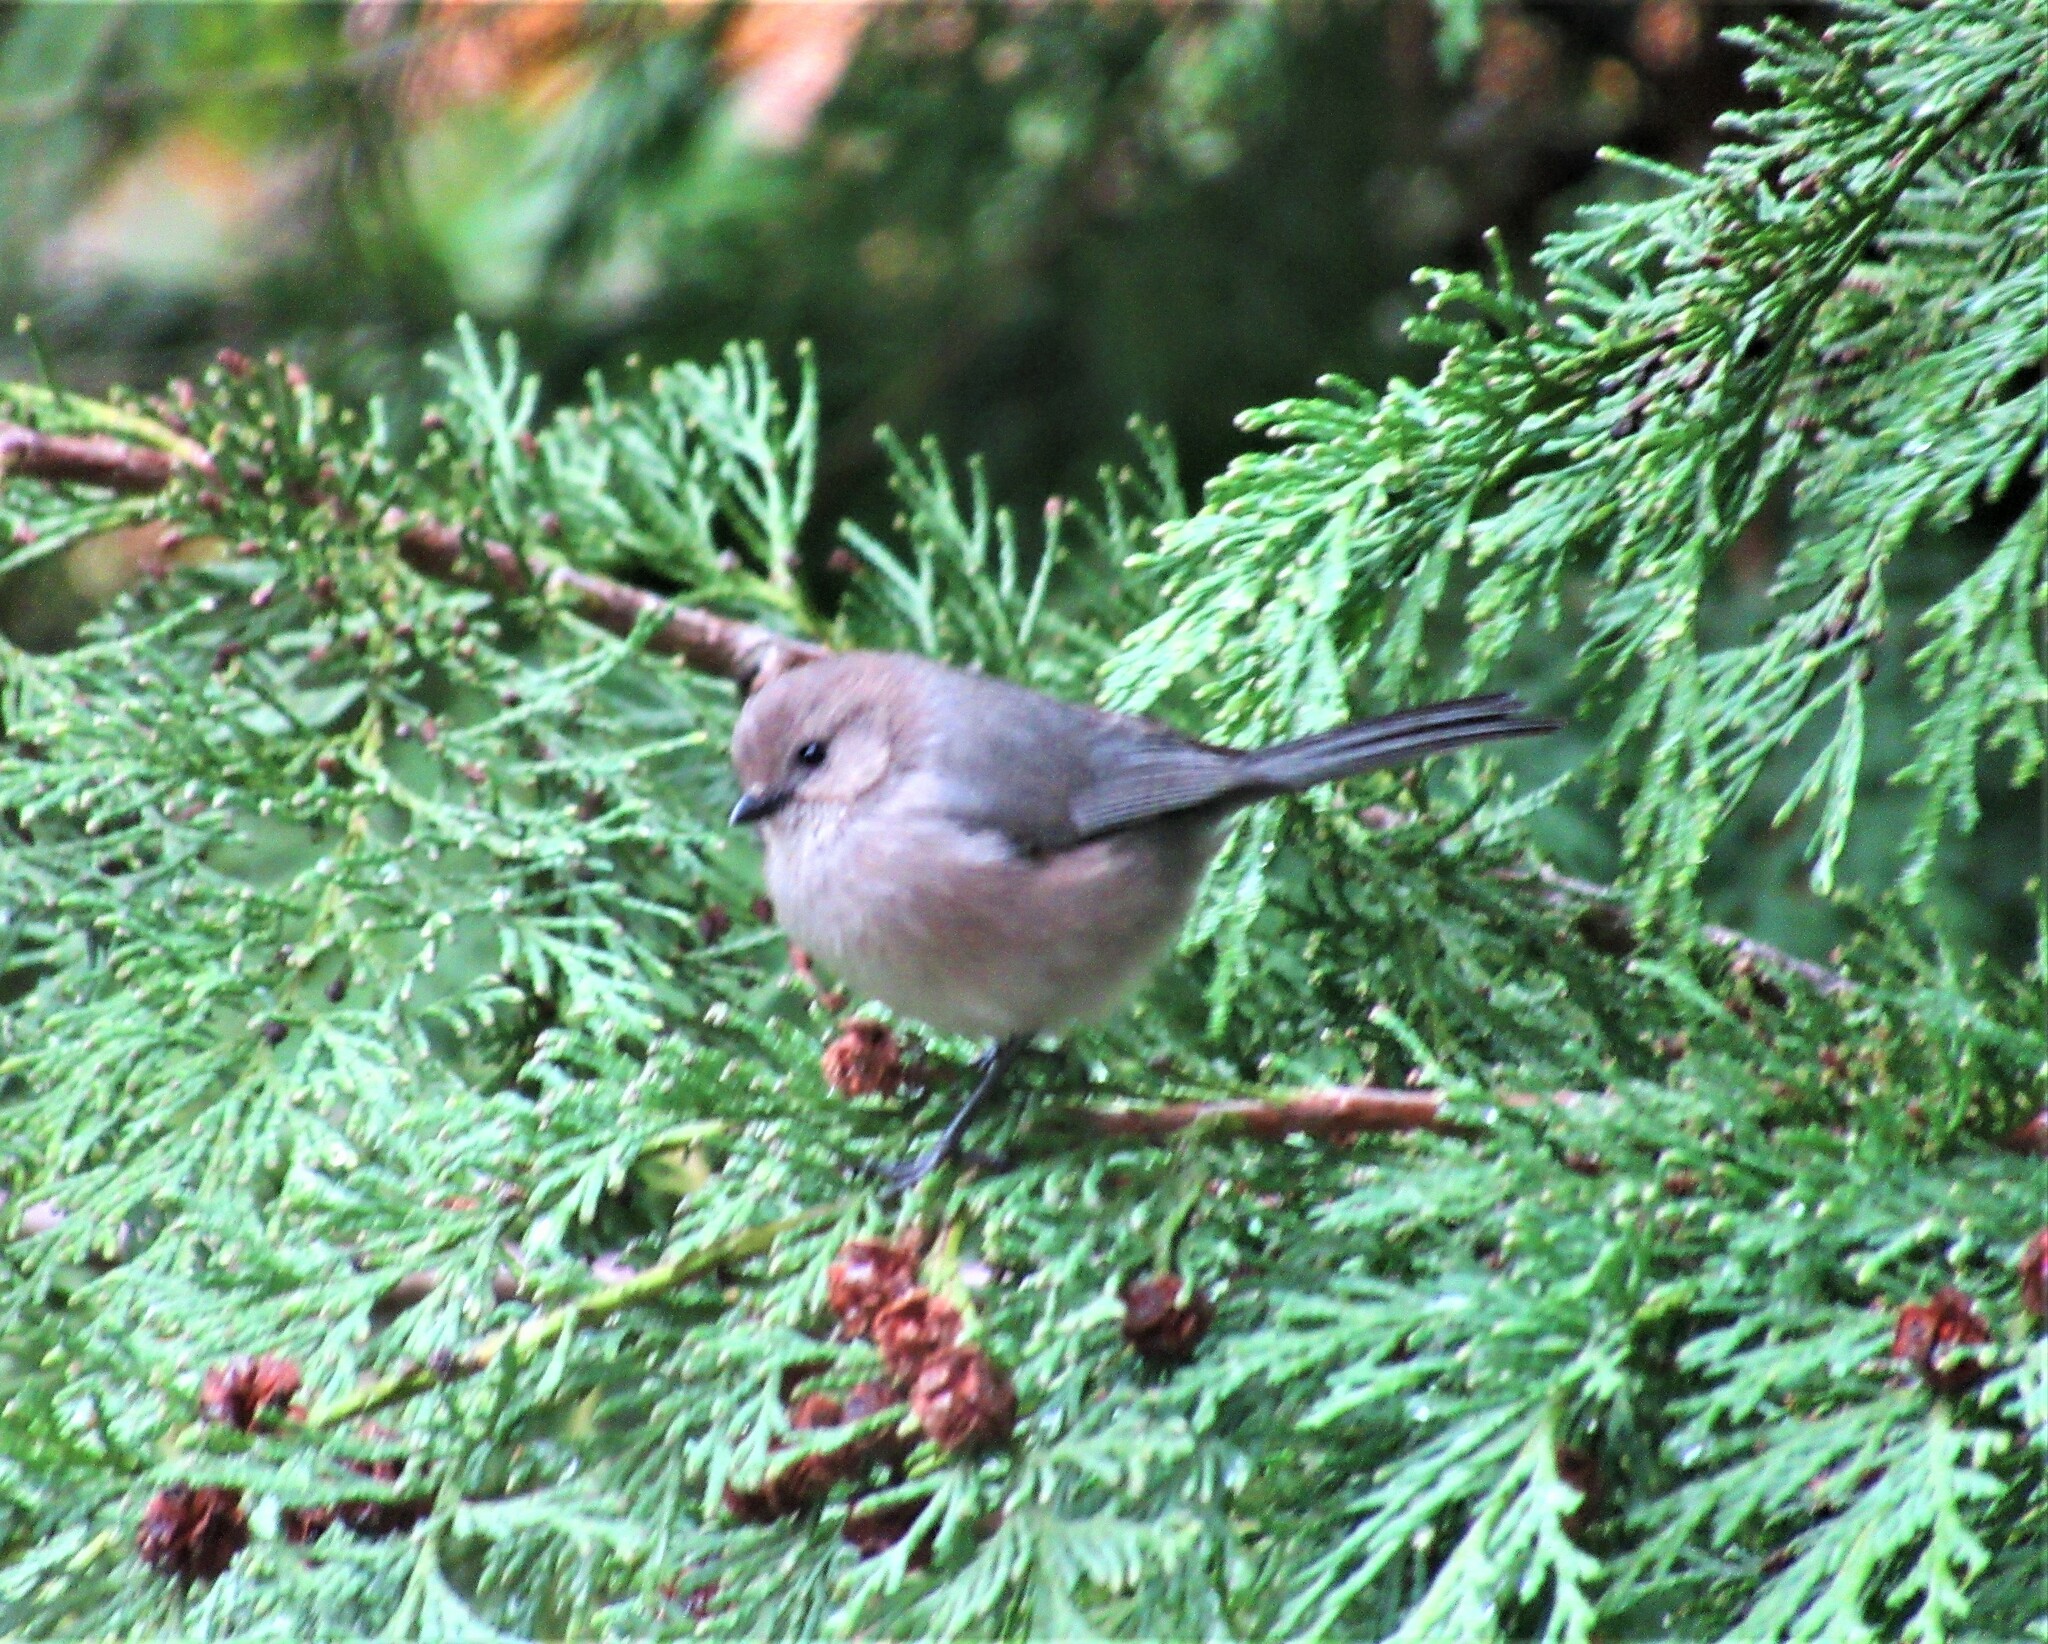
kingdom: Animalia
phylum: Chordata
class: Aves
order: Passeriformes
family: Aegithalidae
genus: Psaltriparus
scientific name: Psaltriparus minimus
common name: American bushtit
